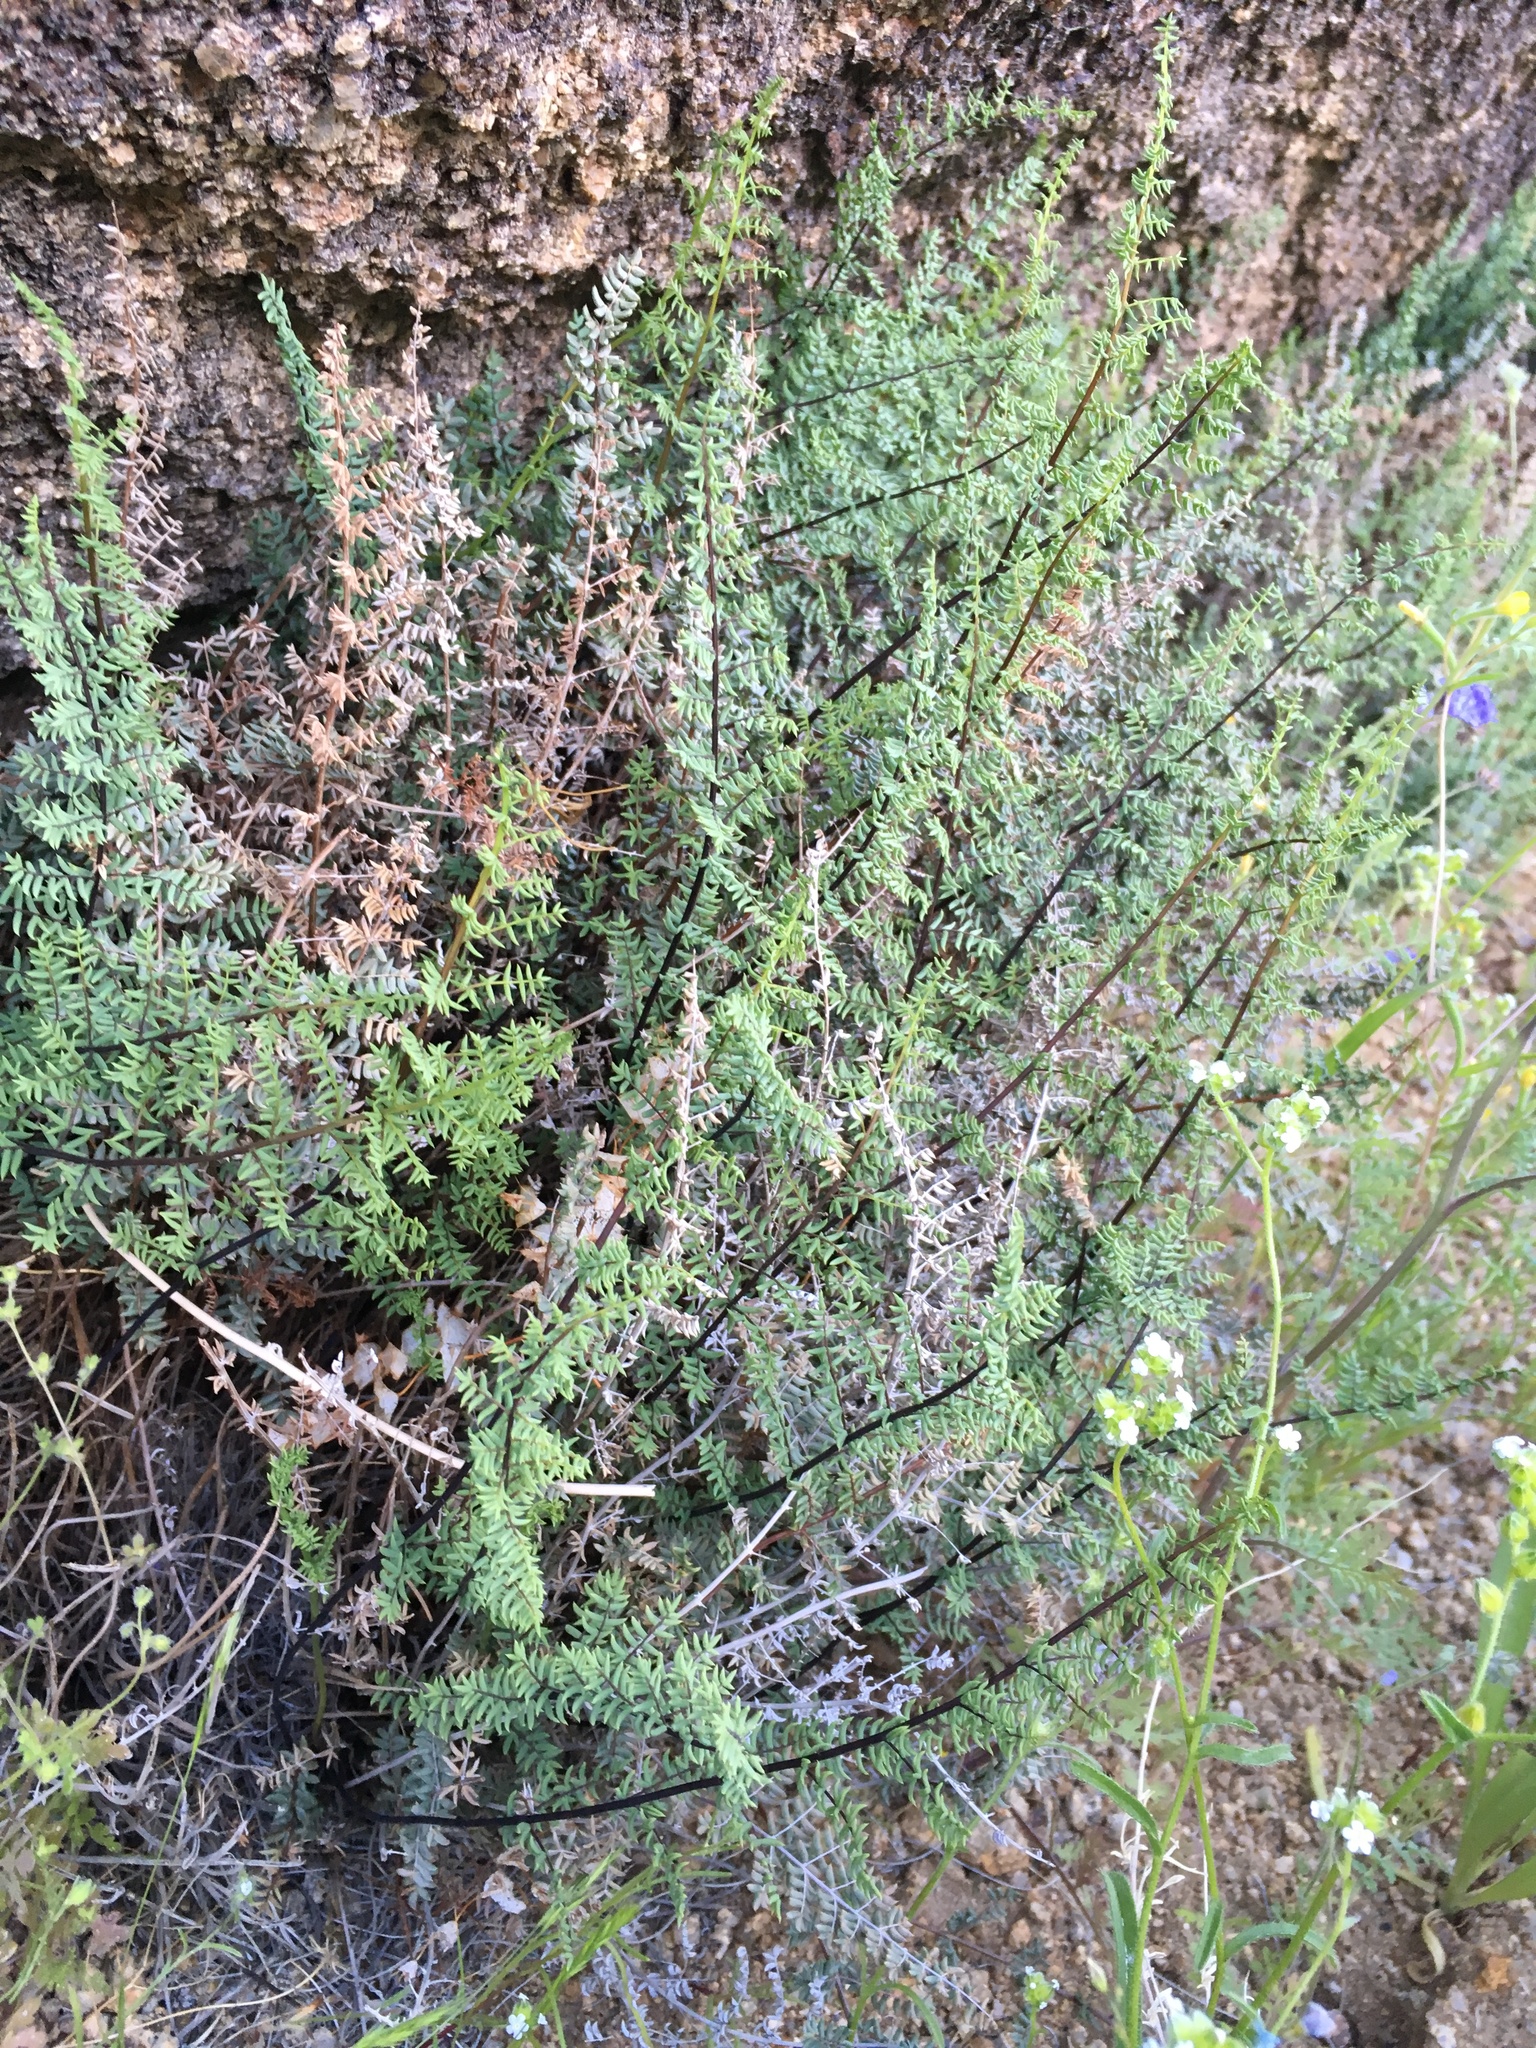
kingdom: Plantae
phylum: Tracheophyta
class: Polypodiopsida
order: Polypodiales
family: Pteridaceae
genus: Pellaea
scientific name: Pellaea mucronata
